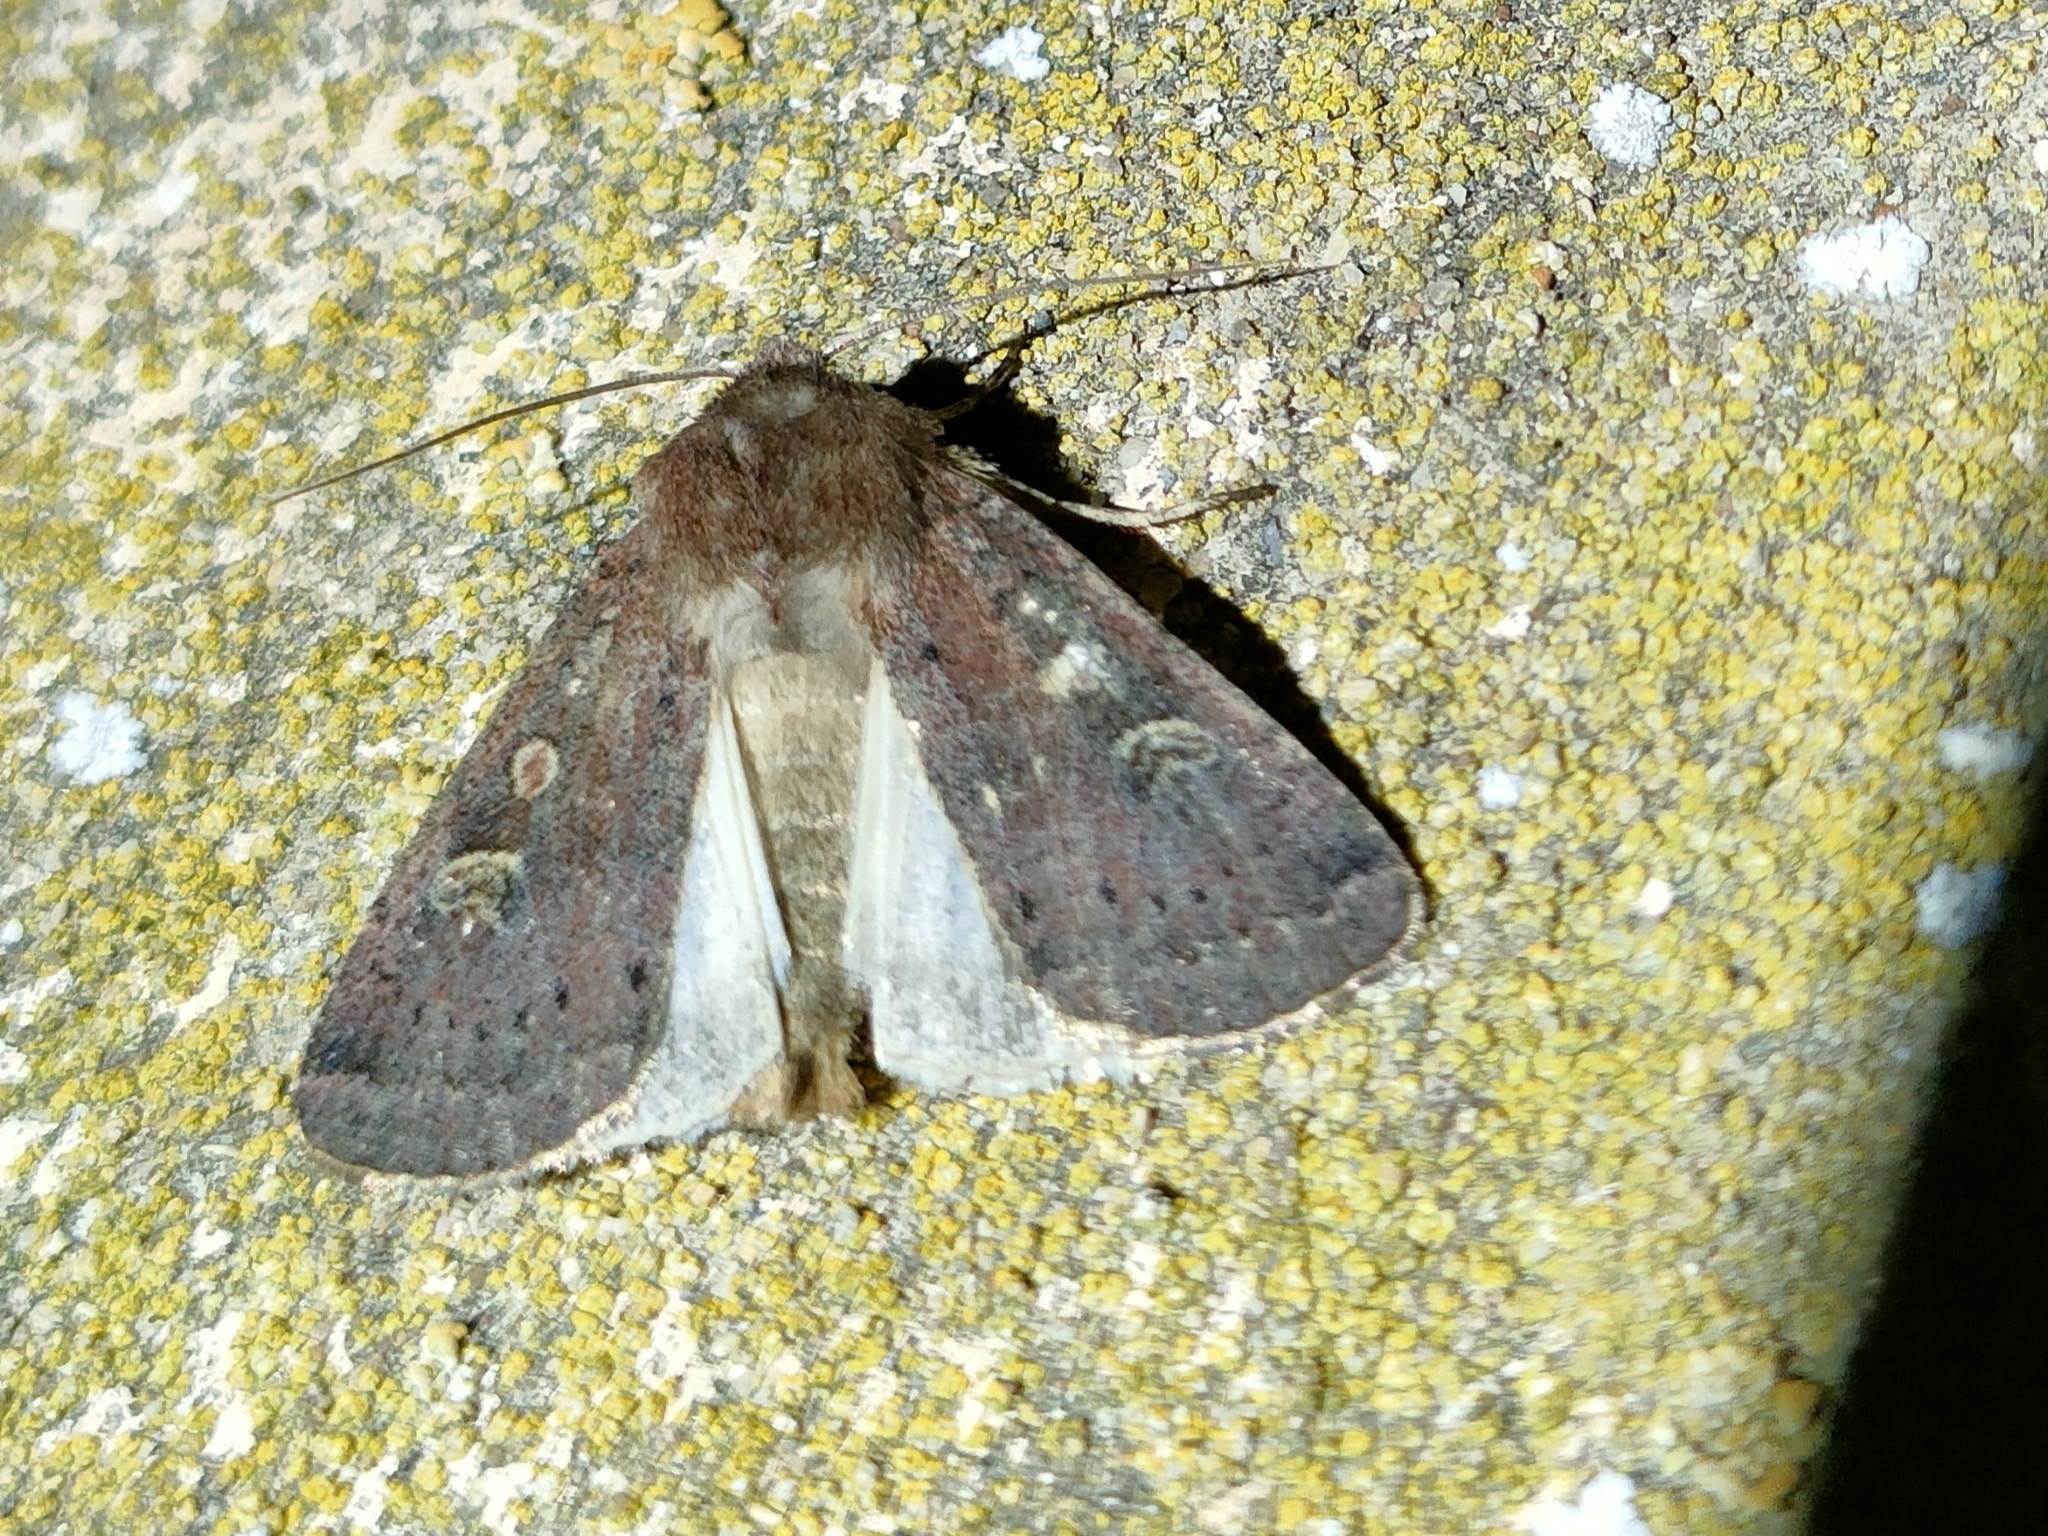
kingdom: Animalia
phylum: Arthropoda
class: Insecta
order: Lepidoptera
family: Noctuidae
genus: Xestia
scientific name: Xestia xanthographa
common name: Square-spot rustic
